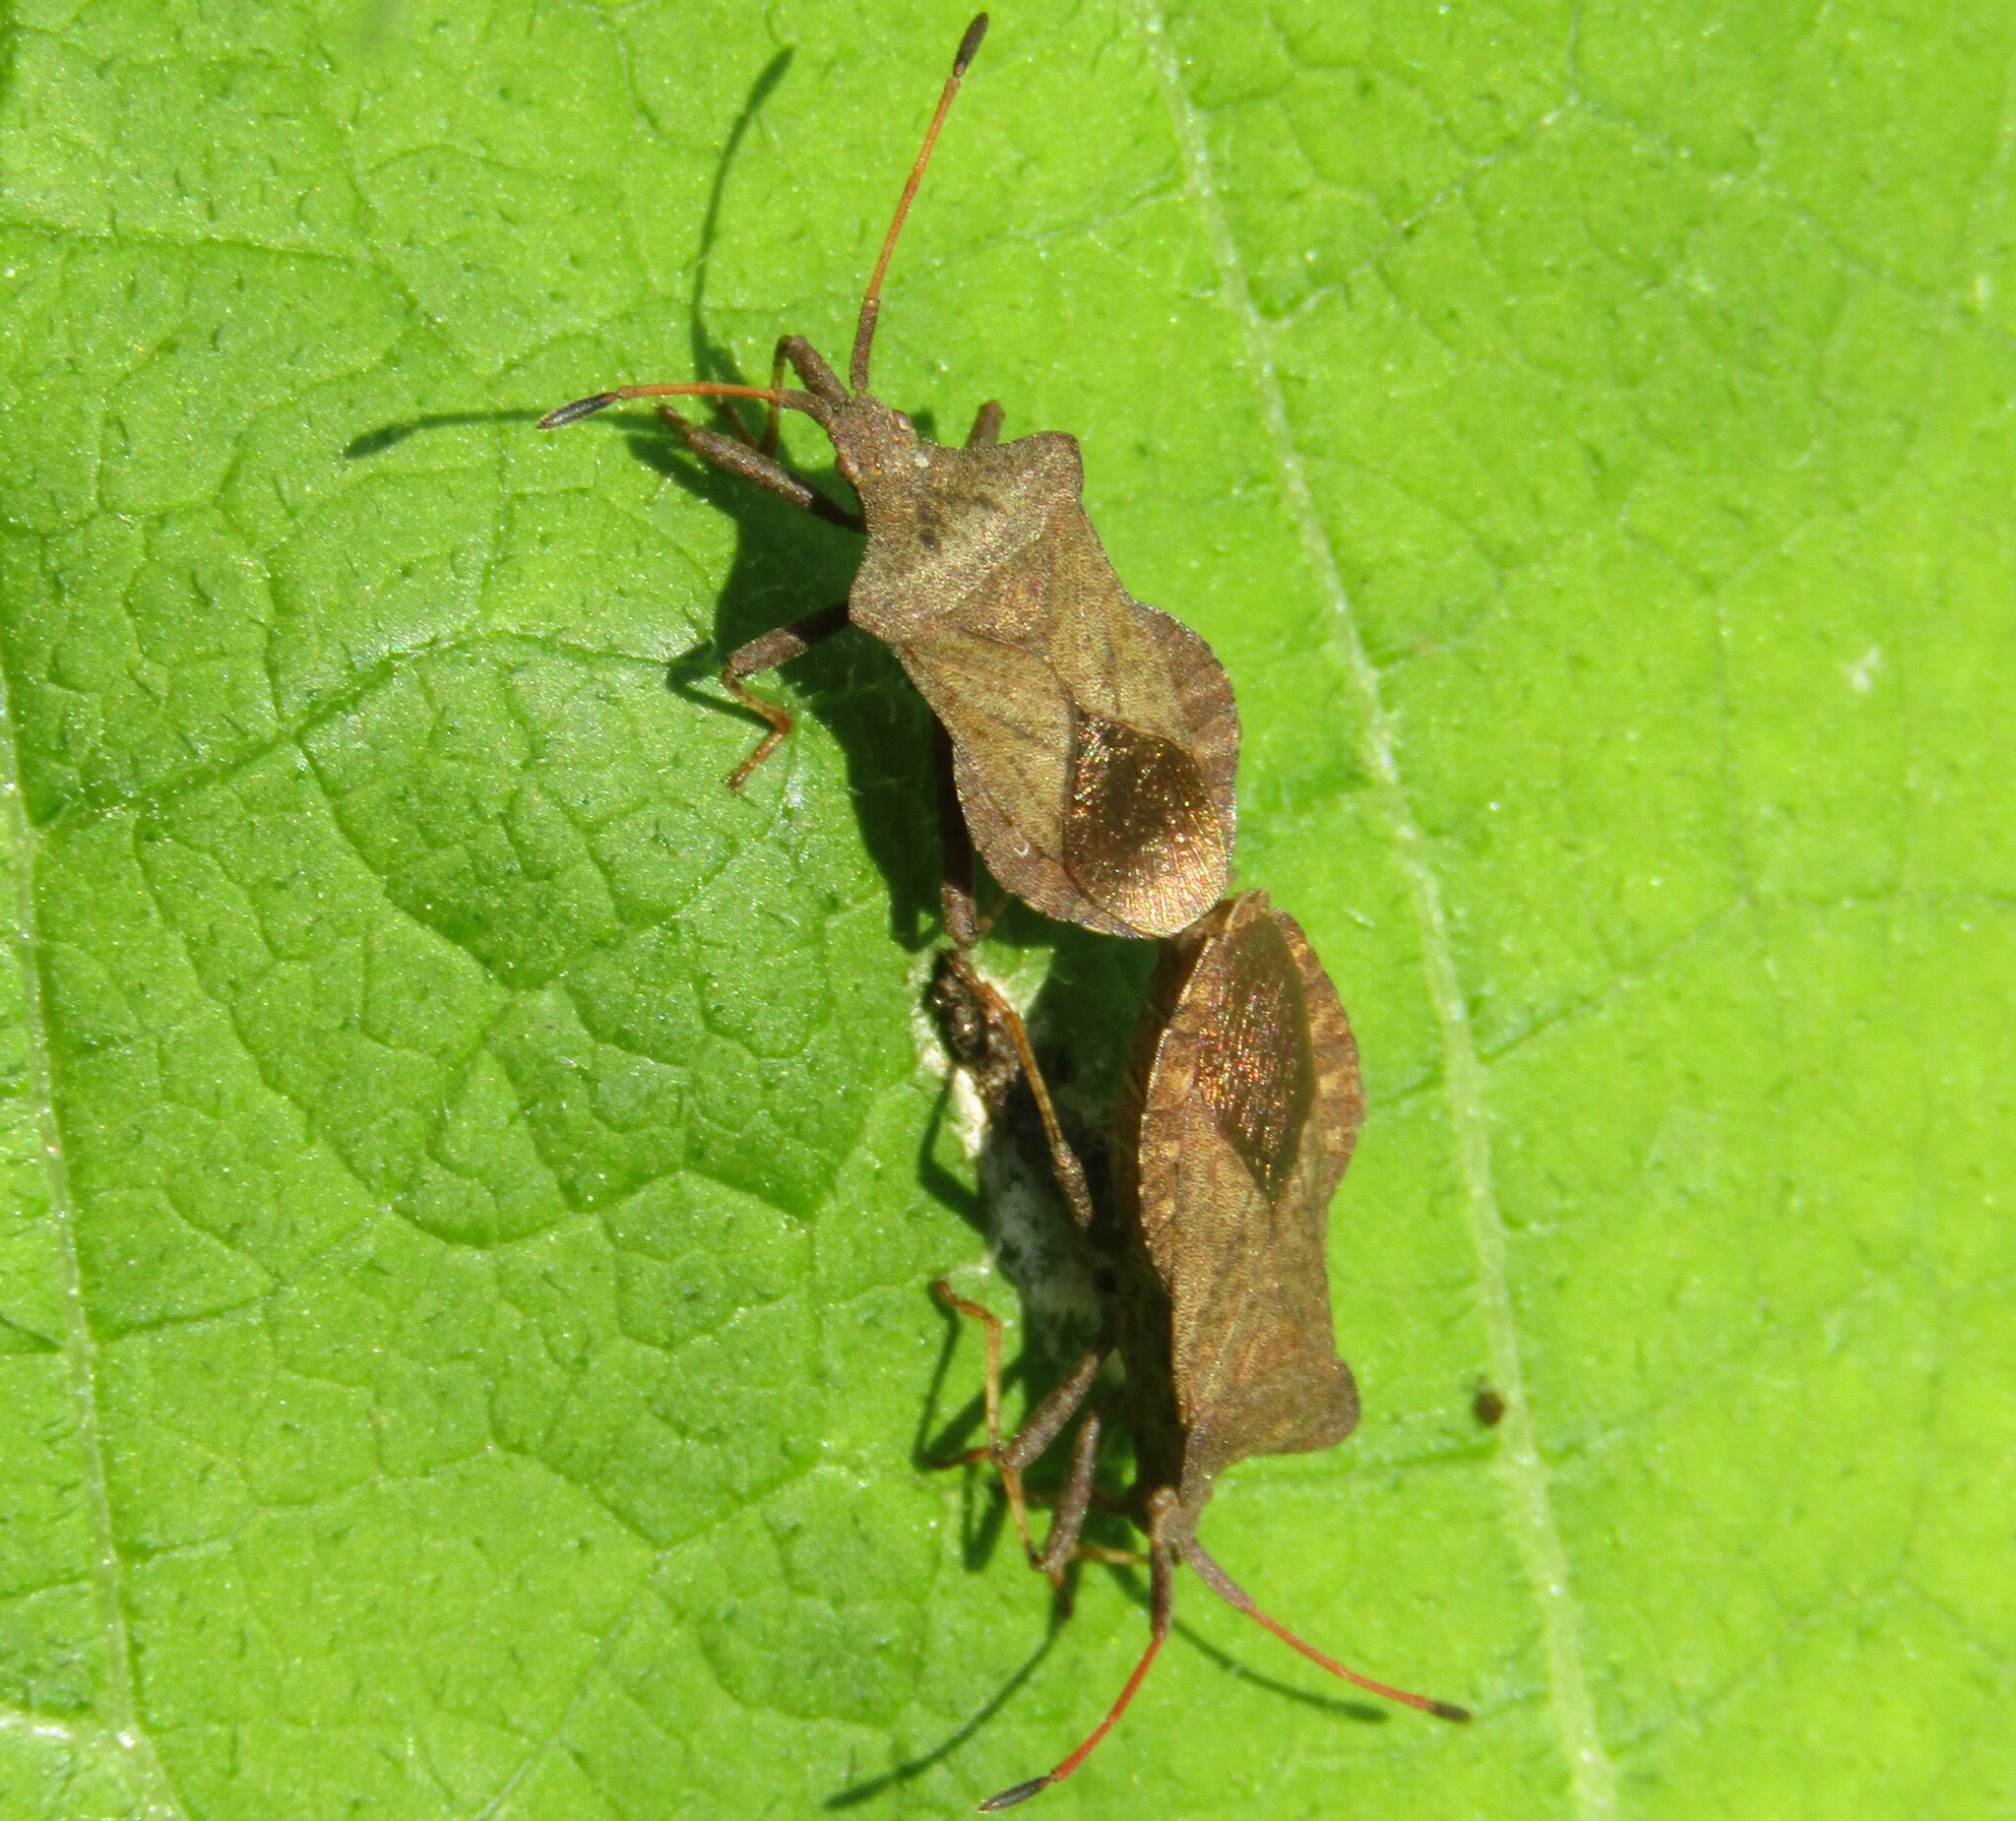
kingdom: Animalia
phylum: Arthropoda
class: Insecta
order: Hemiptera
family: Coreidae
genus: Coreus
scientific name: Coreus marginatus
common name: Dock bug
